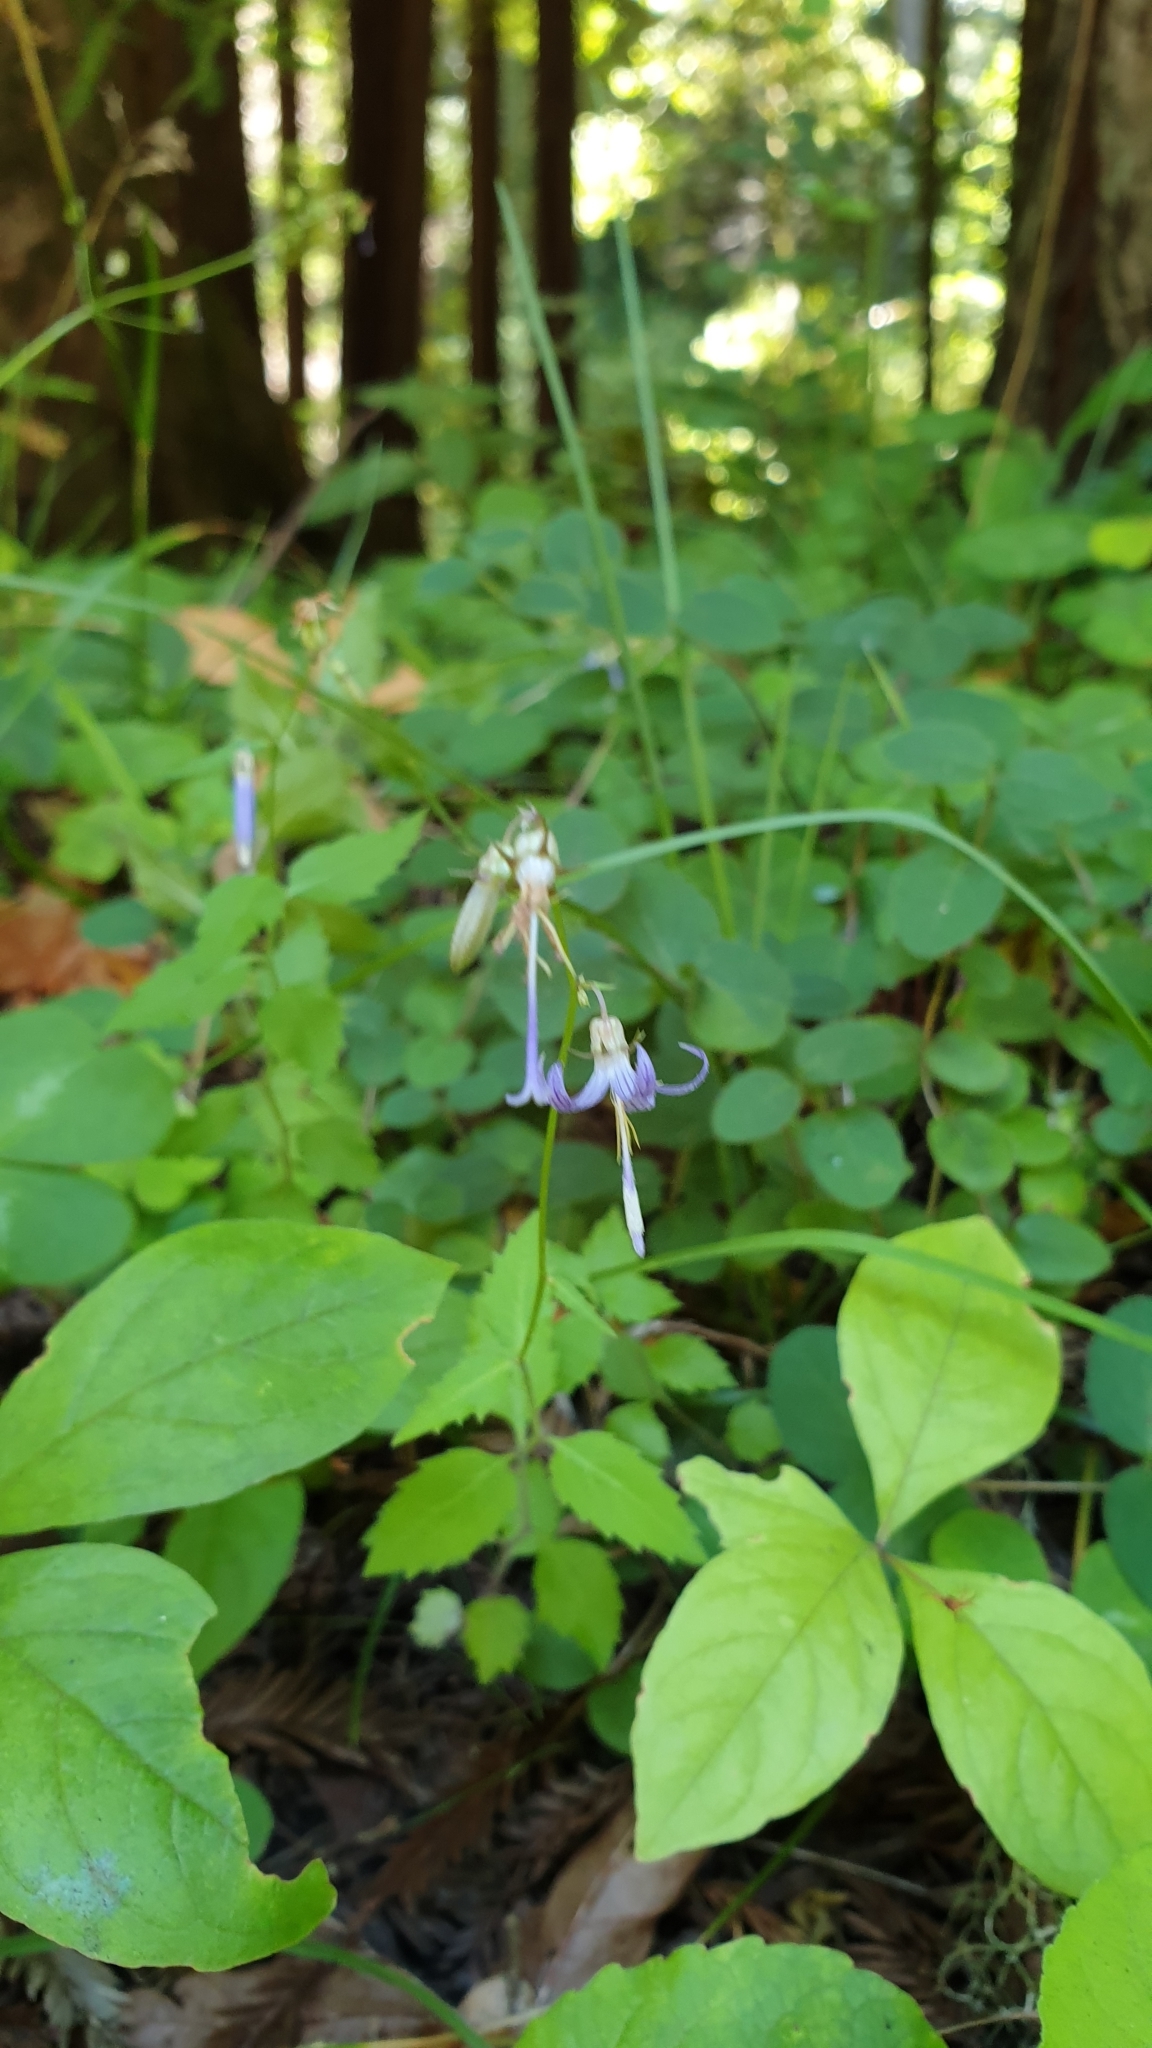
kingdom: Plantae
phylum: Tracheophyta
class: Magnoliopsida
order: Asterales
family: Campanulaceae
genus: Smithiastrum
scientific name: Smithiastrum prenanthoides
